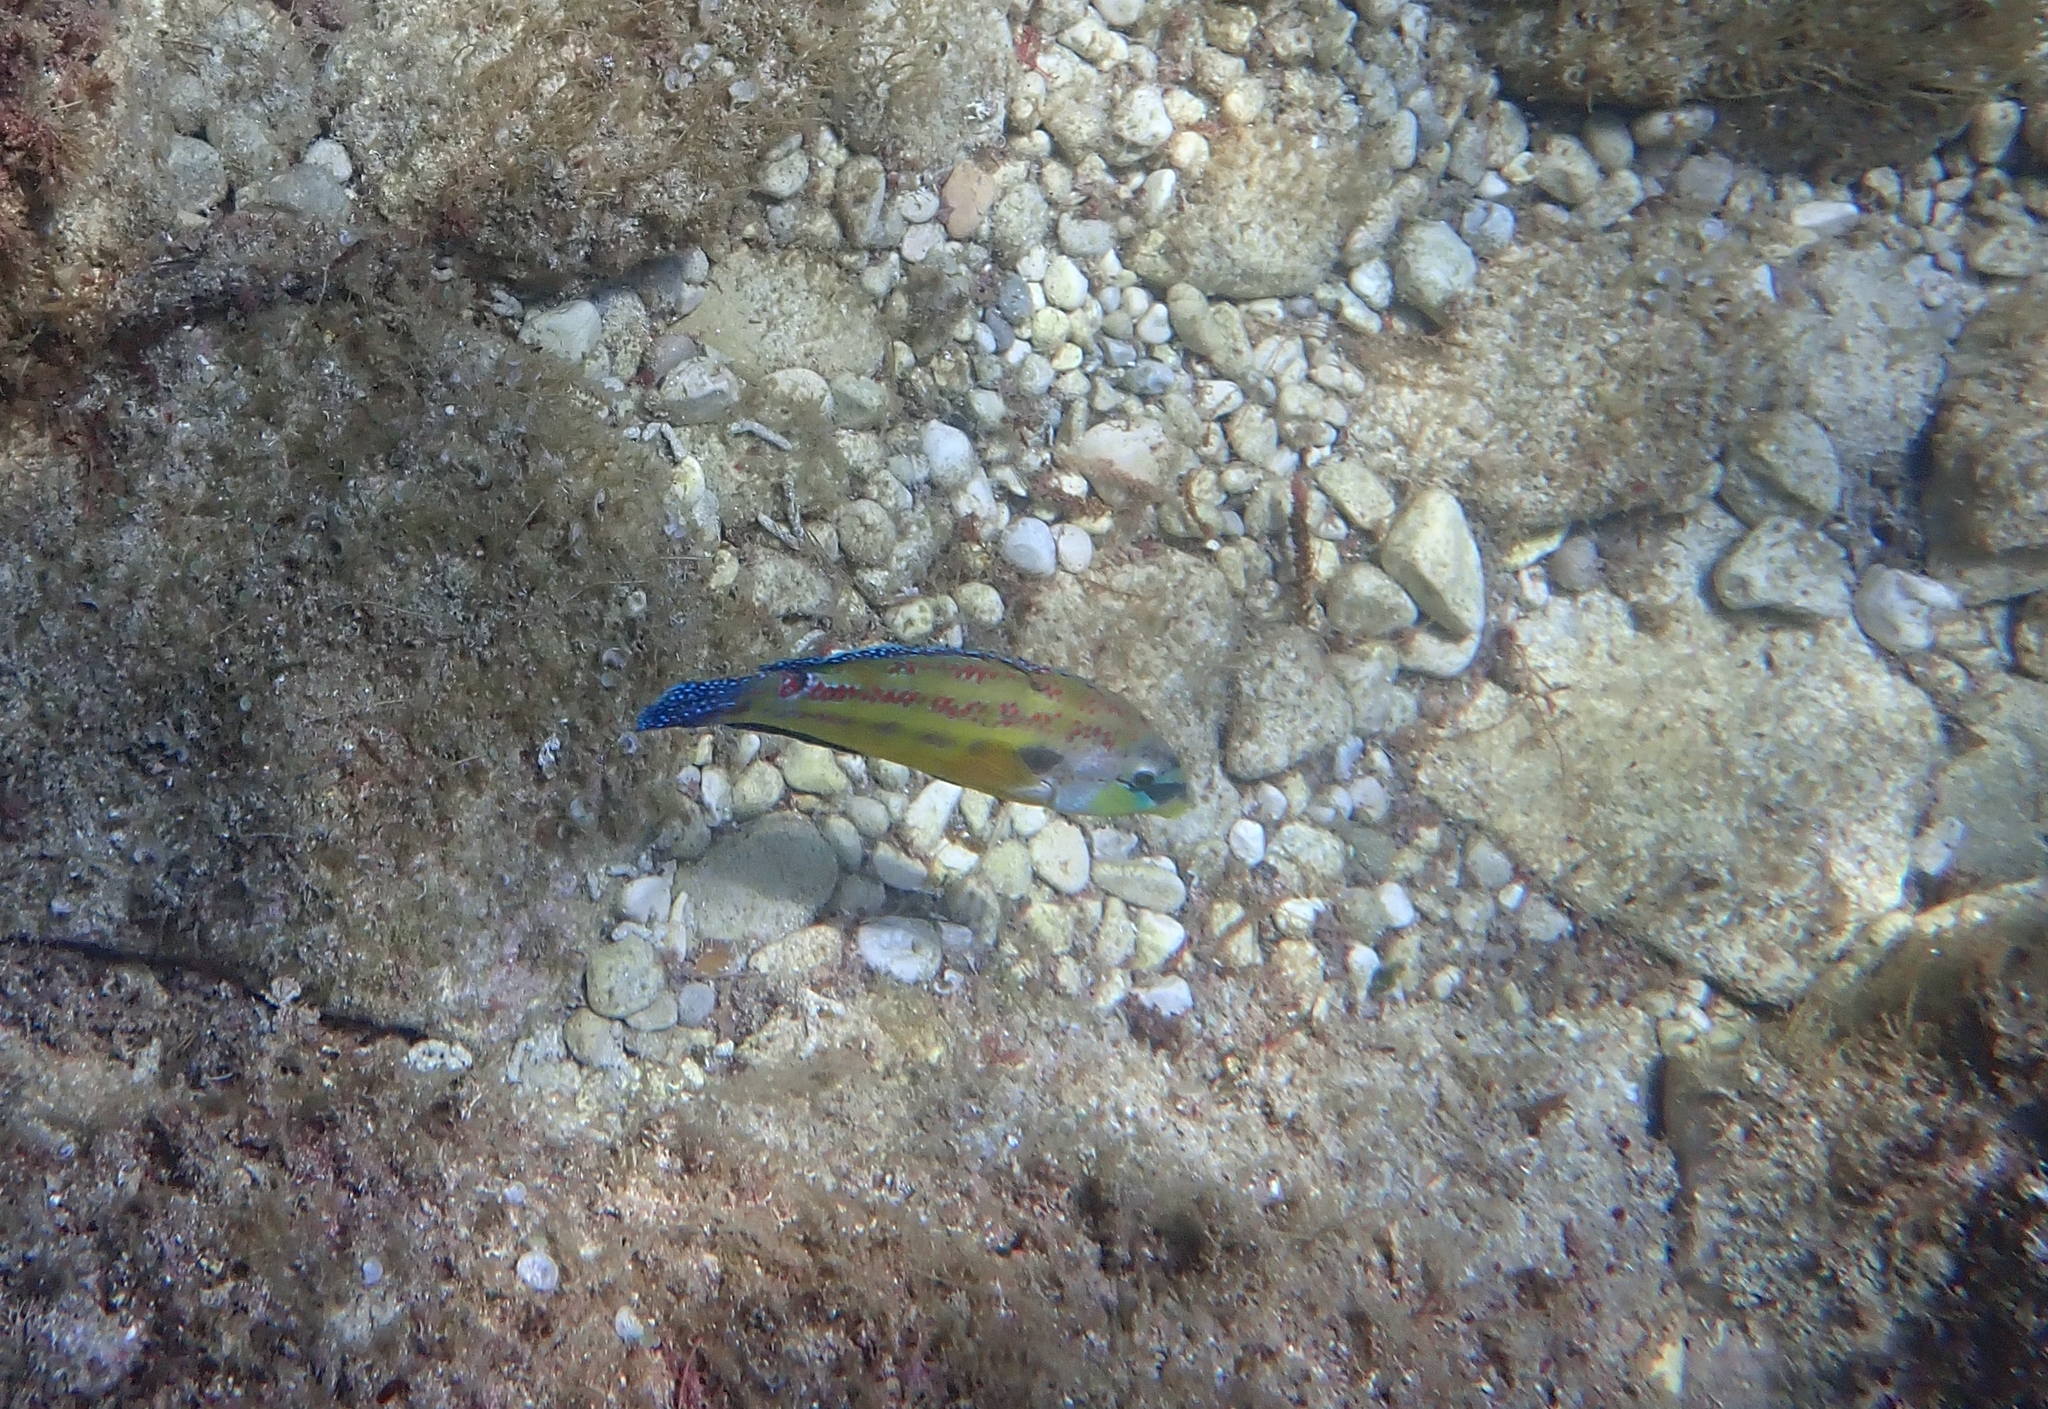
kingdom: Animalia
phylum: Chordata
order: Perciformes
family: Labridae
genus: Symphodus
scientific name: Symphodus tinca
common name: Peacock wrasse
